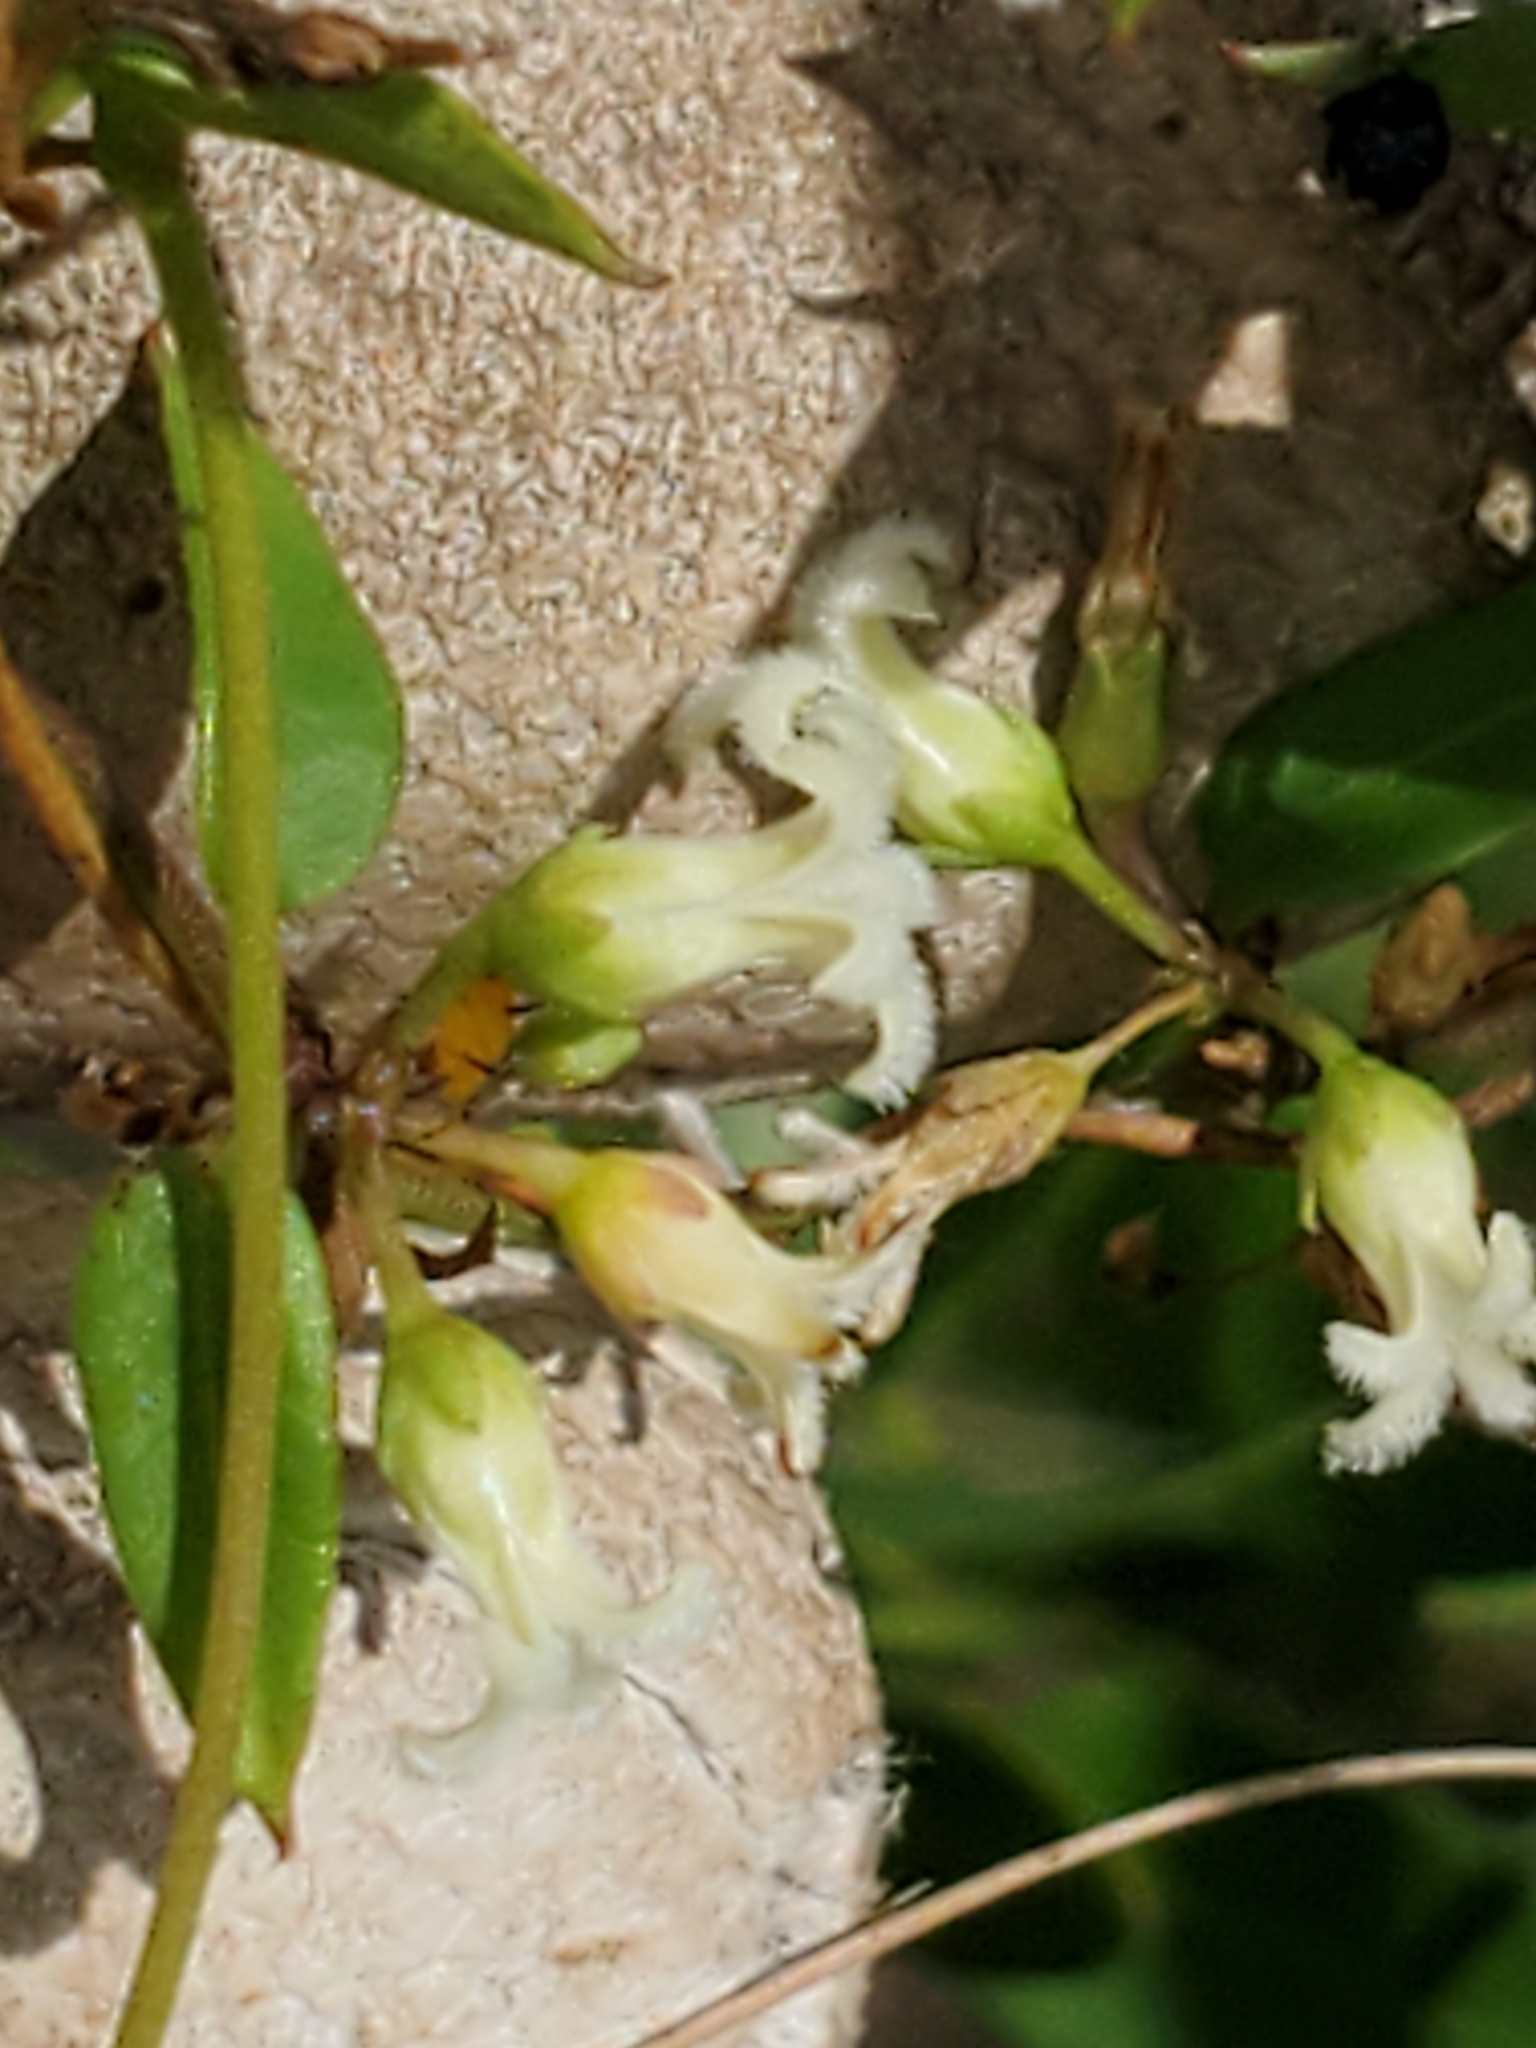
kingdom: Plantae
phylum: Tracheophyta
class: Magnoliopsida
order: Gentianales
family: Apocynaceae
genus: Metastelma
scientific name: Metastelma barbigerum
